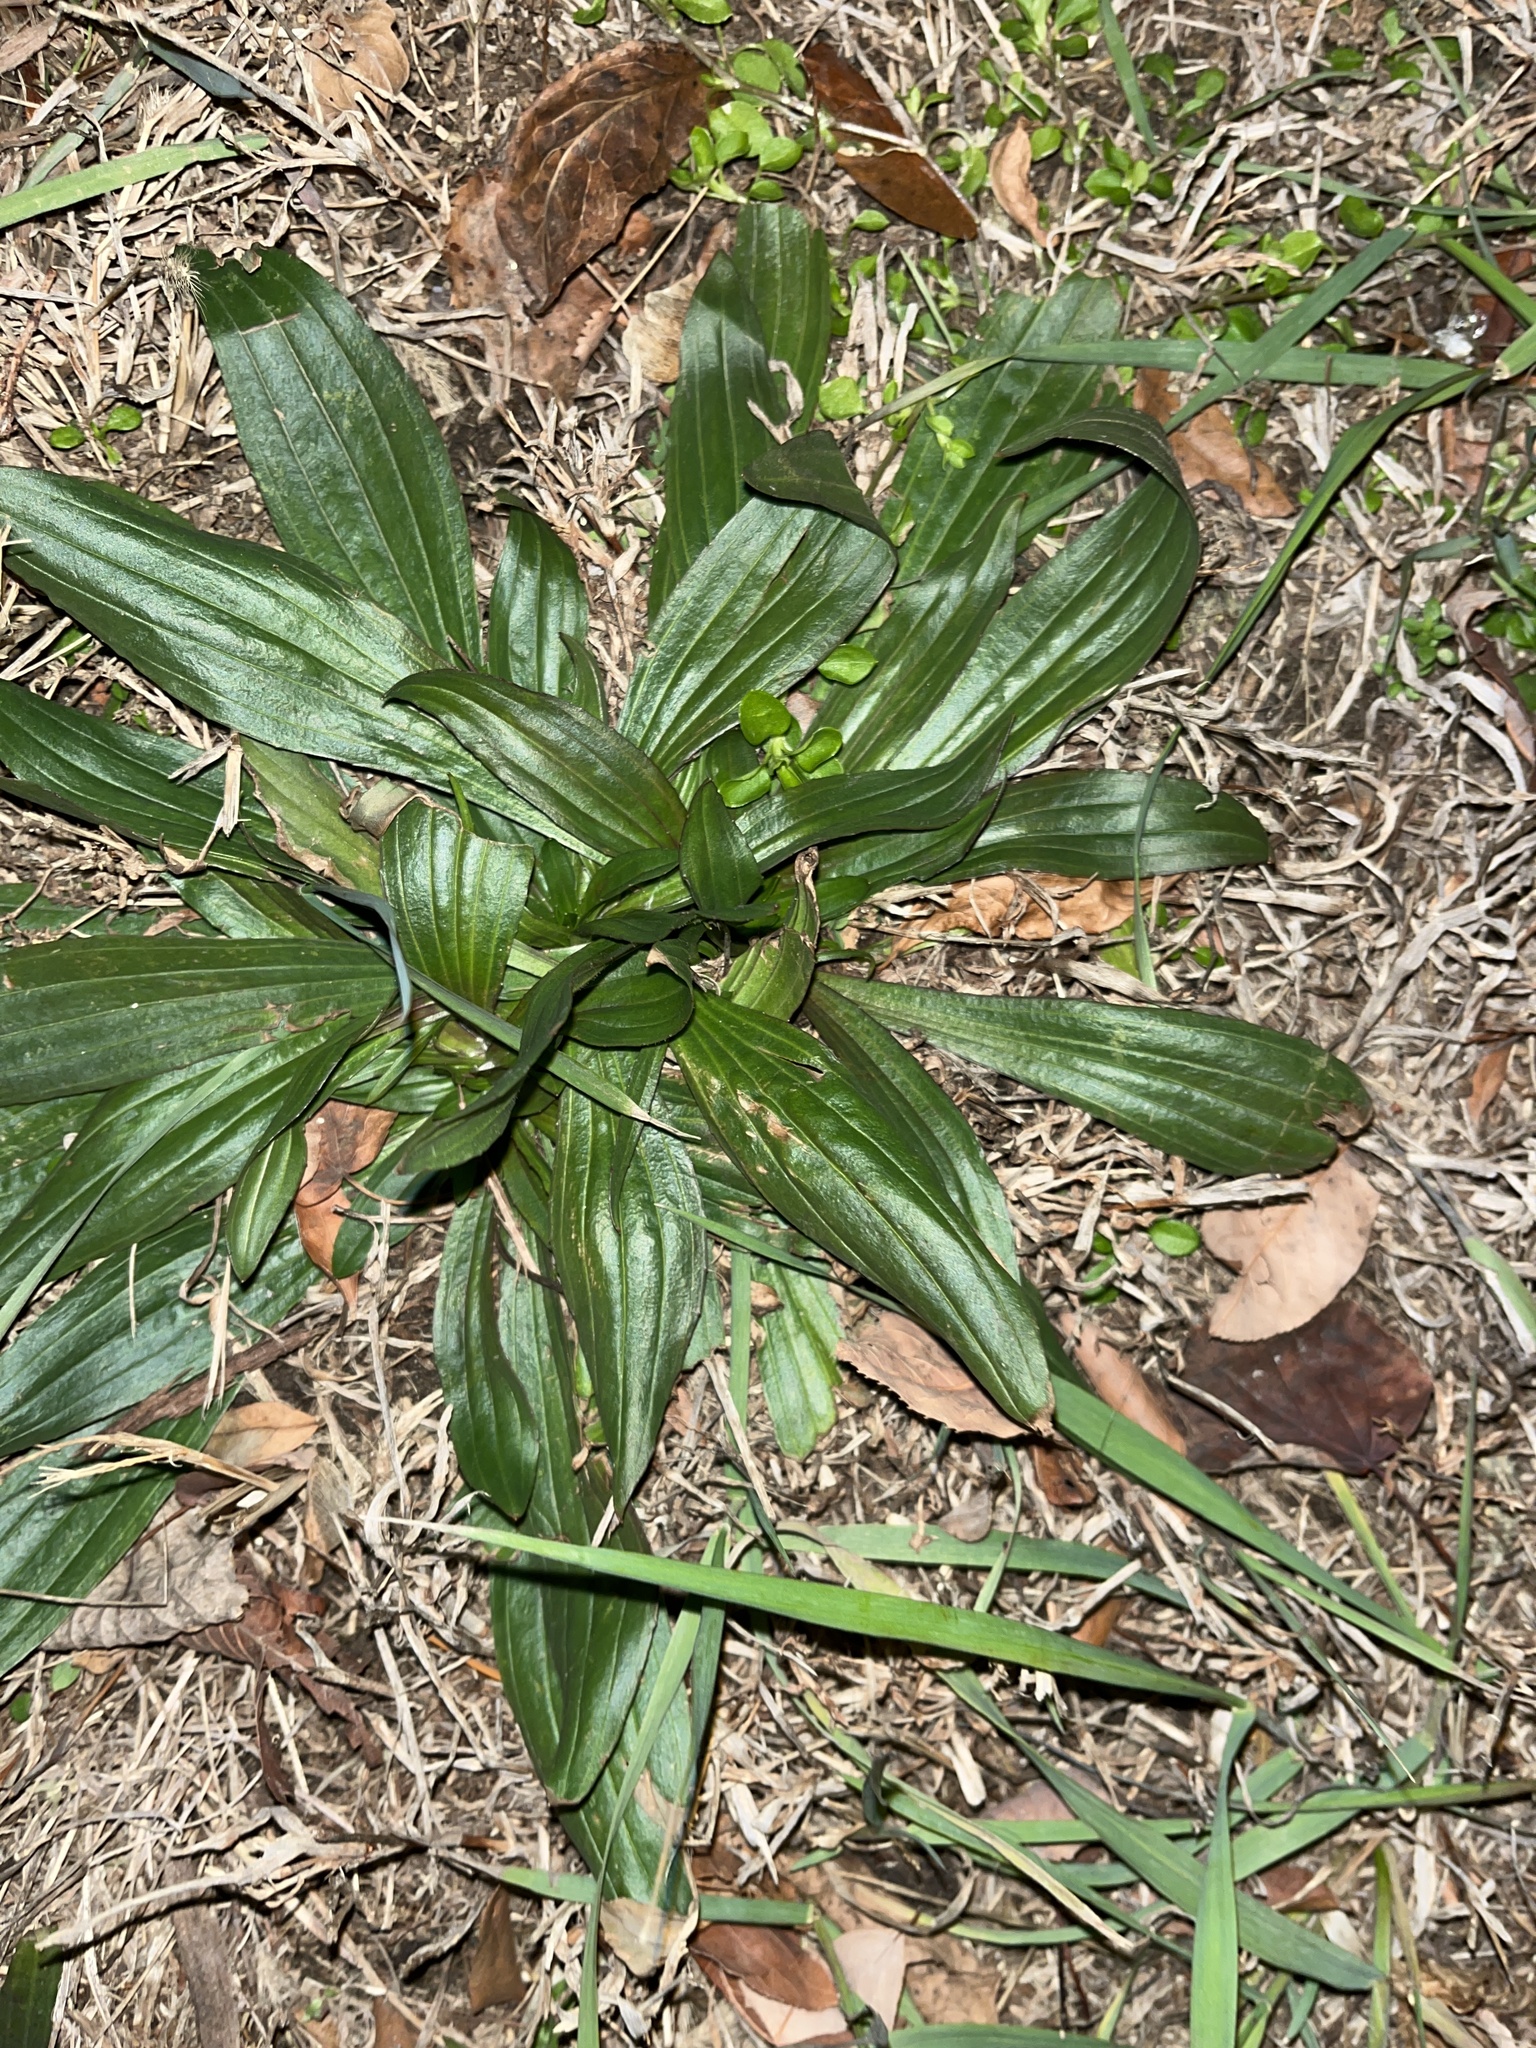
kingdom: Plantae
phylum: Tracheophyta
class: Magnoliopsida
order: Lamiales
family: Plantaginaceae
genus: Plantago
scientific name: Plantago lanceolata
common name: Ribwort plantain
